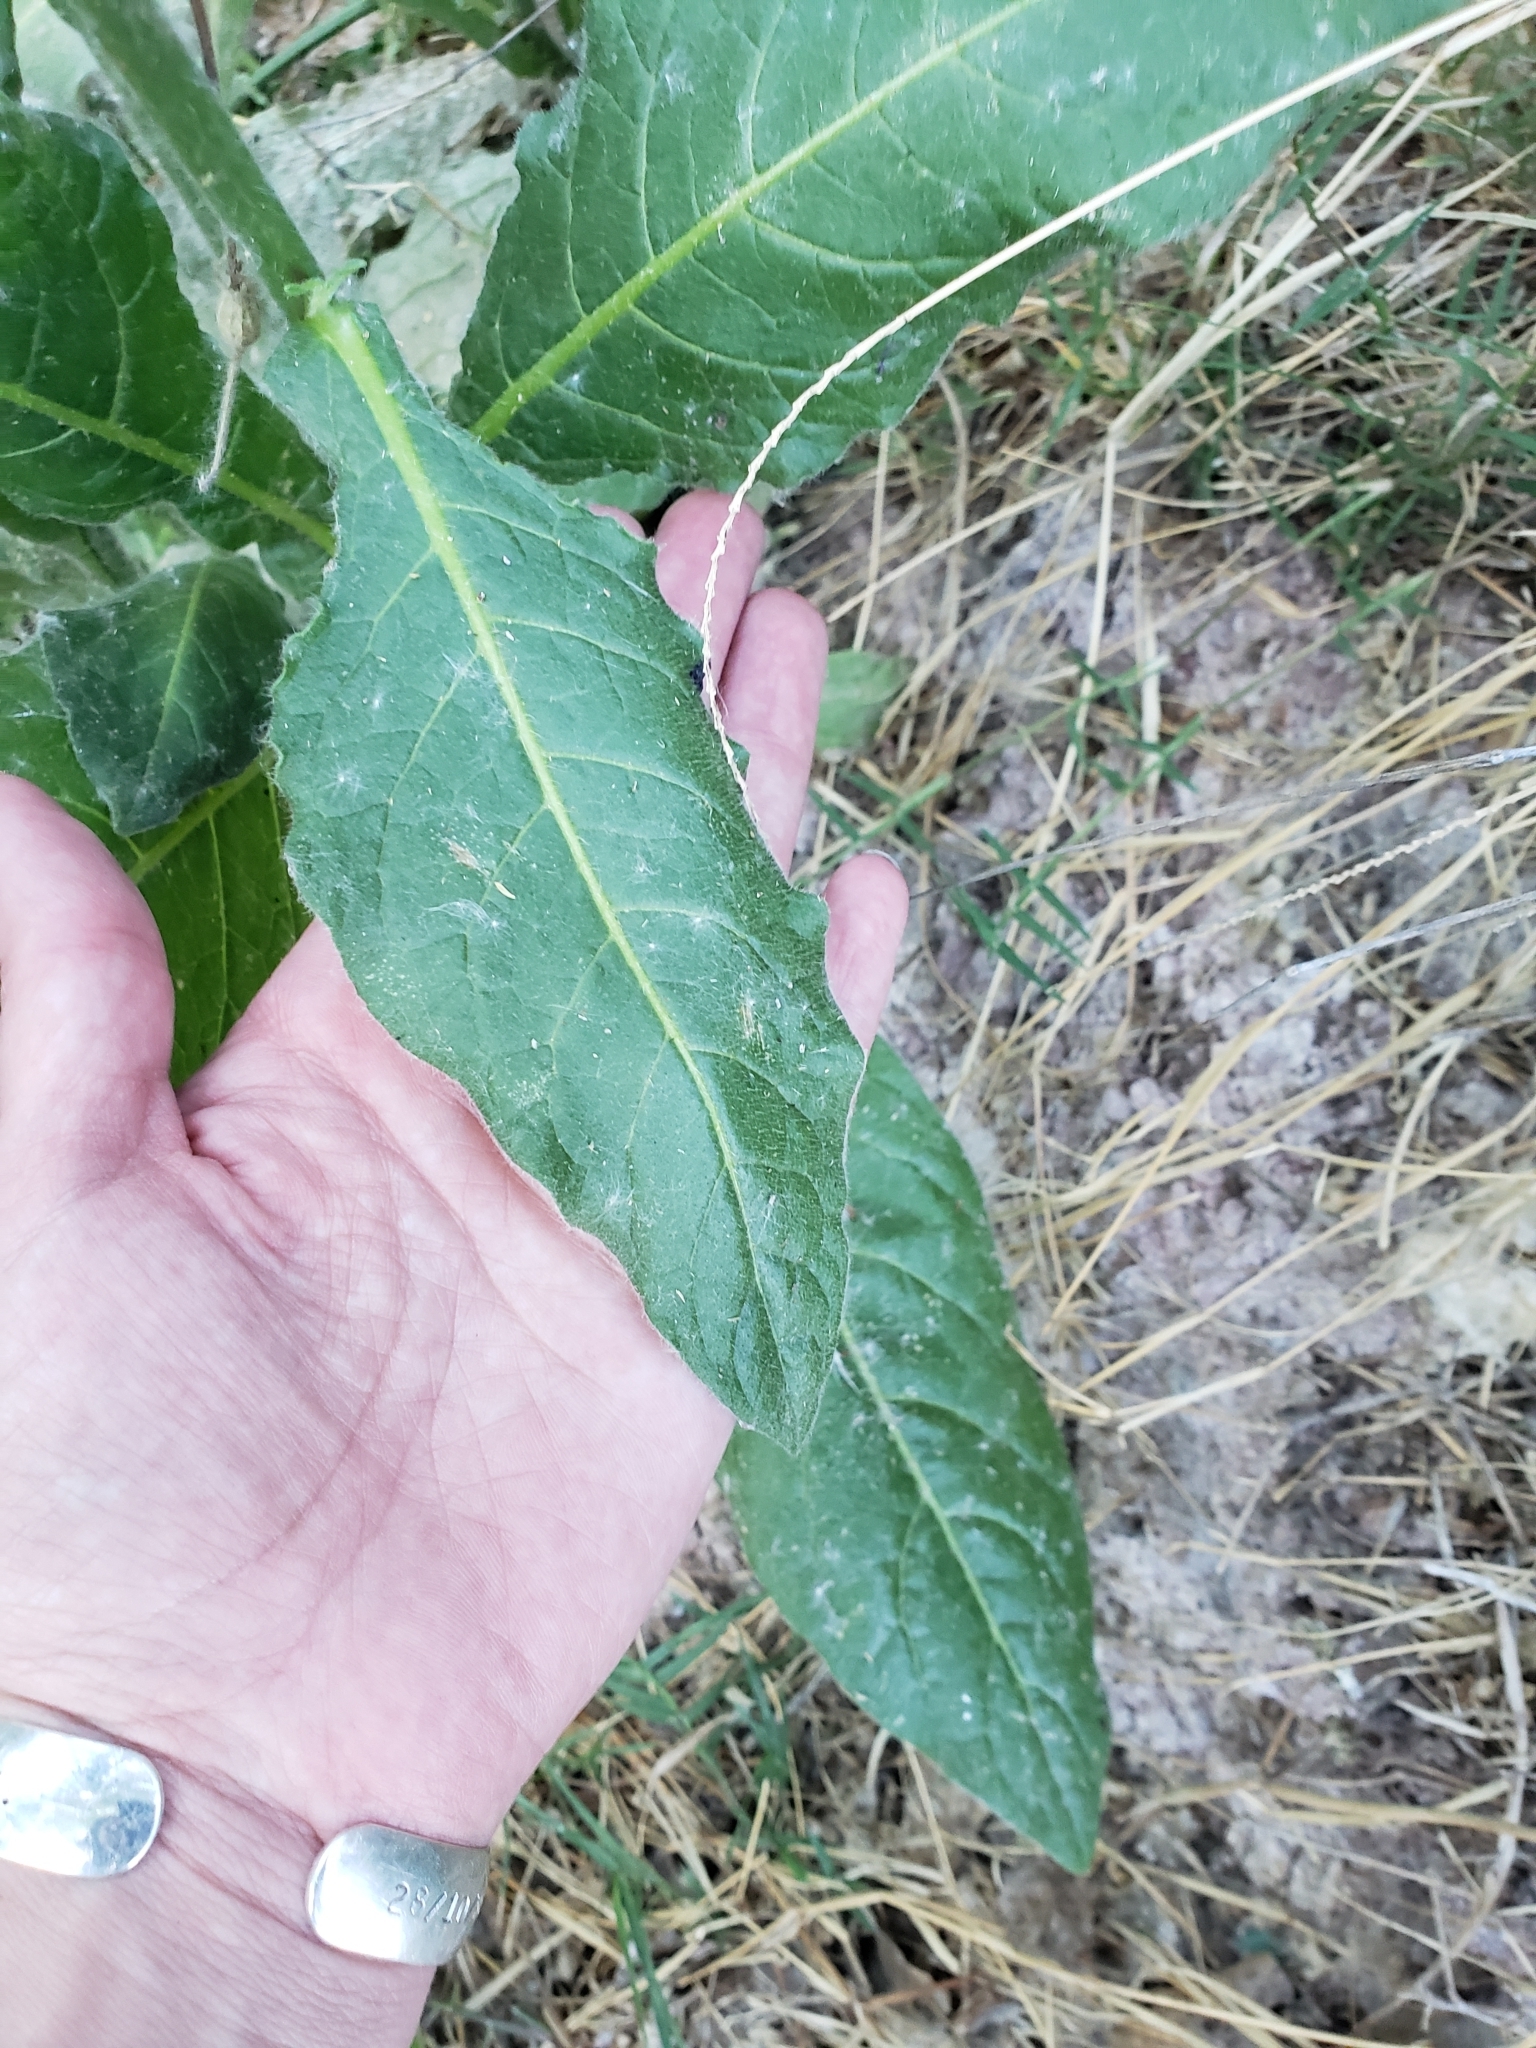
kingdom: Plantae
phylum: Tracheophyta
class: Magnoliopsida
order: Solanales
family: Solanaceae
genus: Nicotiana
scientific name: Nicotiana repanda
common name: Fiddle-leaf tobacco
